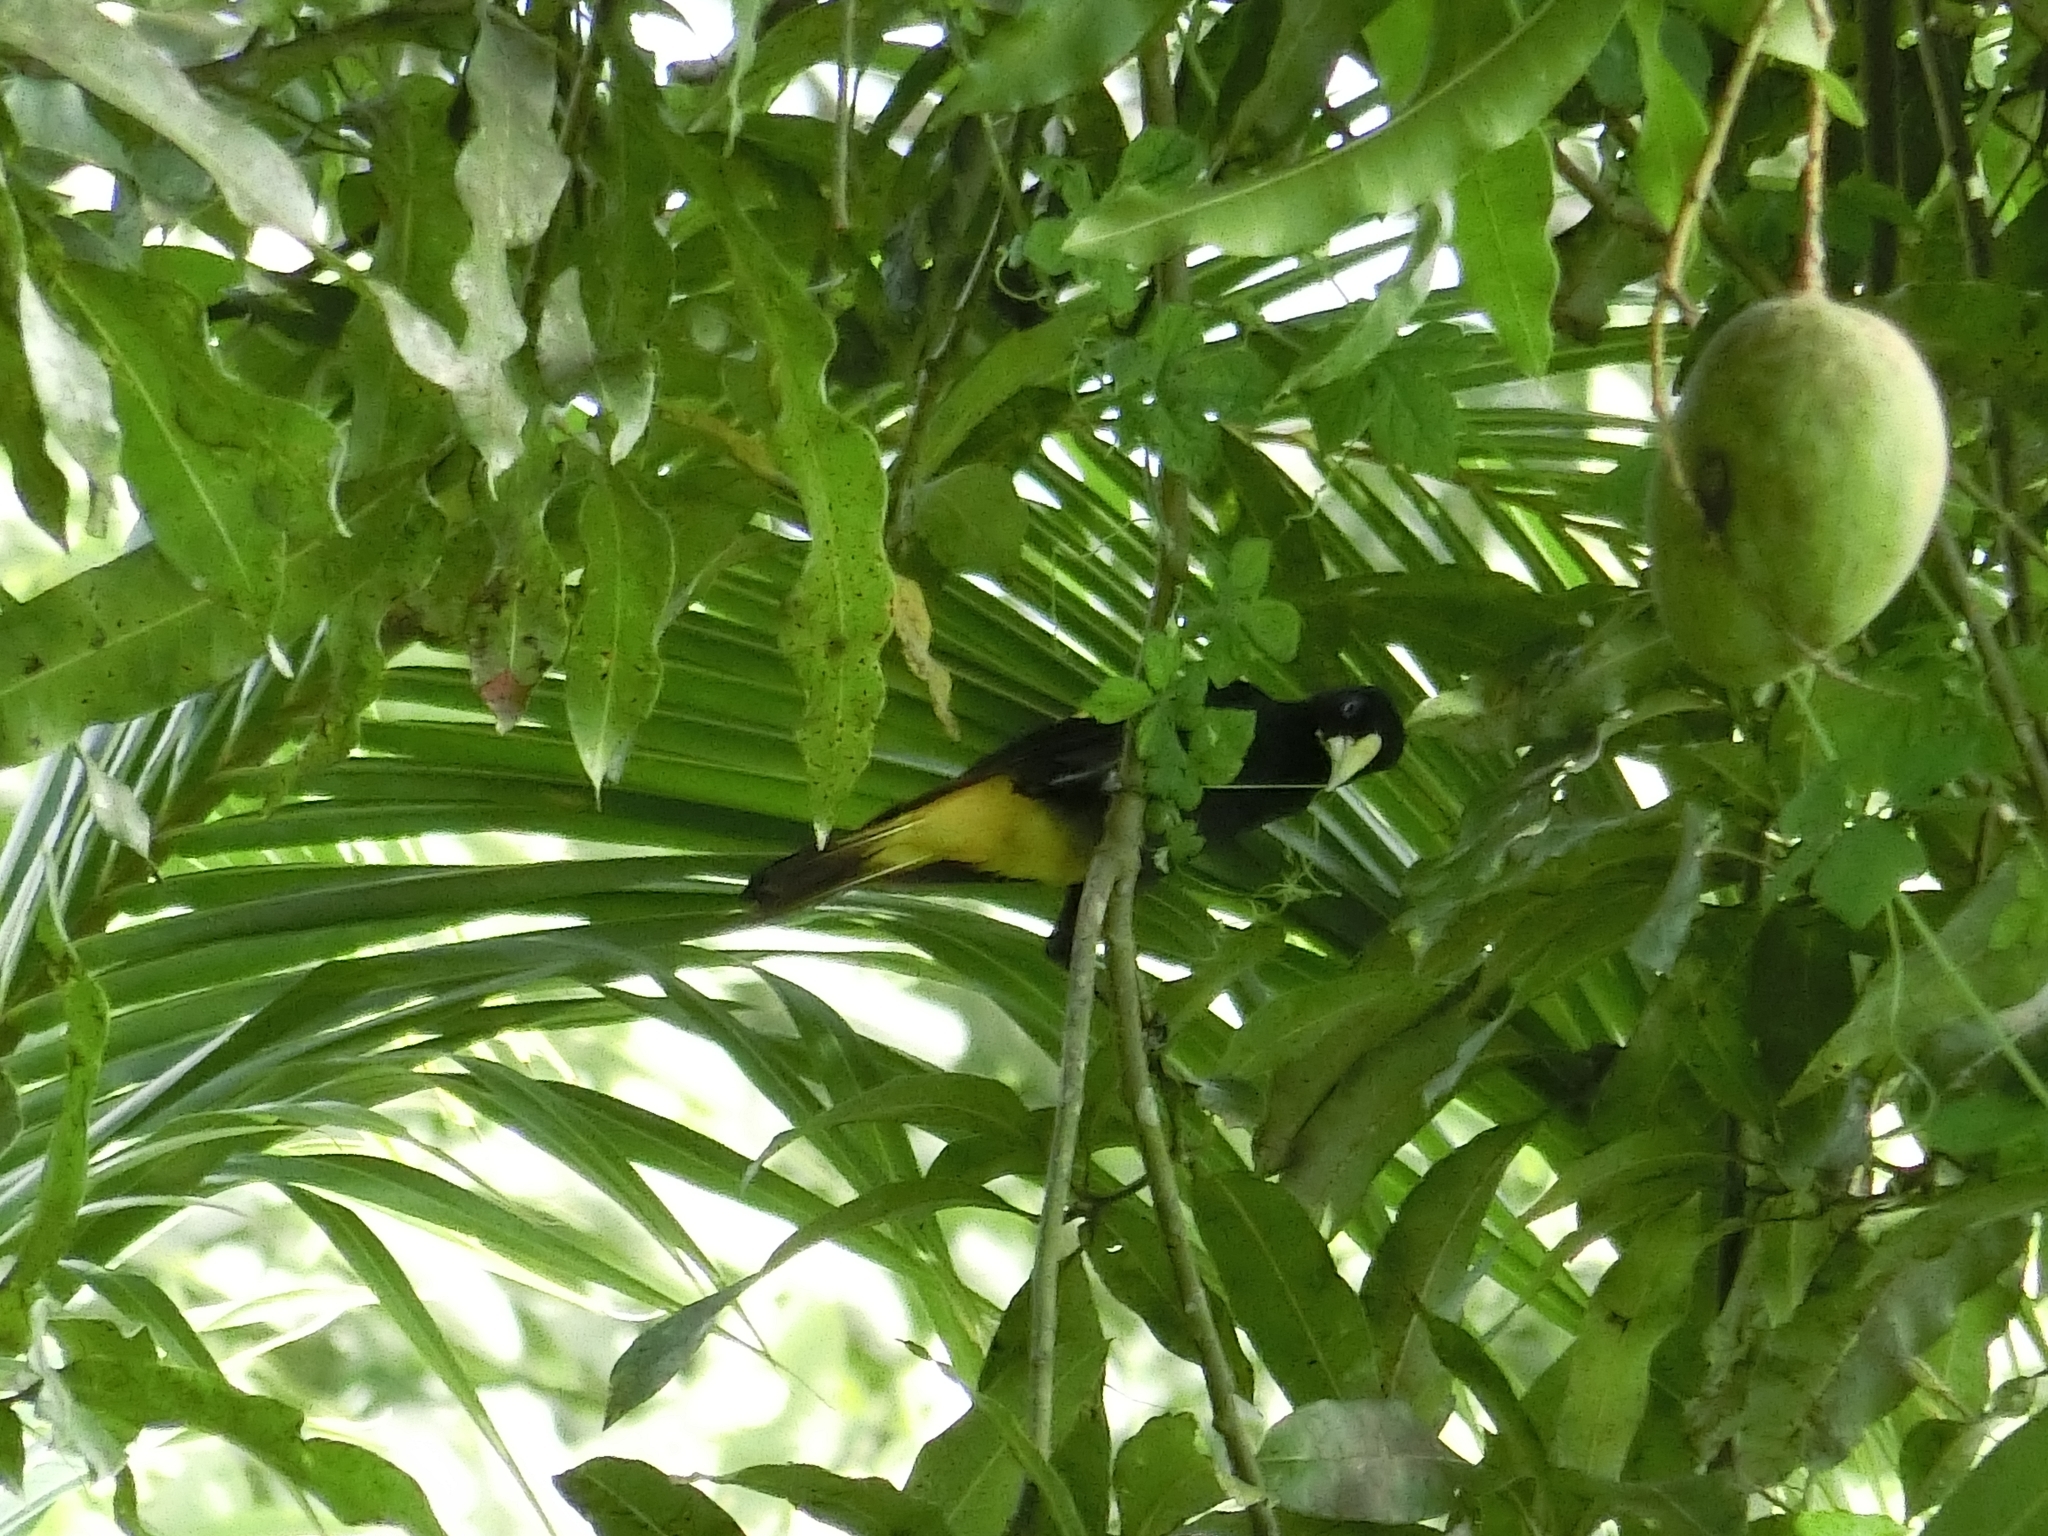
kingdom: Animalia
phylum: Chordata
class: Aves
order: Passeriformes
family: Icteridae
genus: Cacicus
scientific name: Cacicus cela
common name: Yellow-rumped cacique
